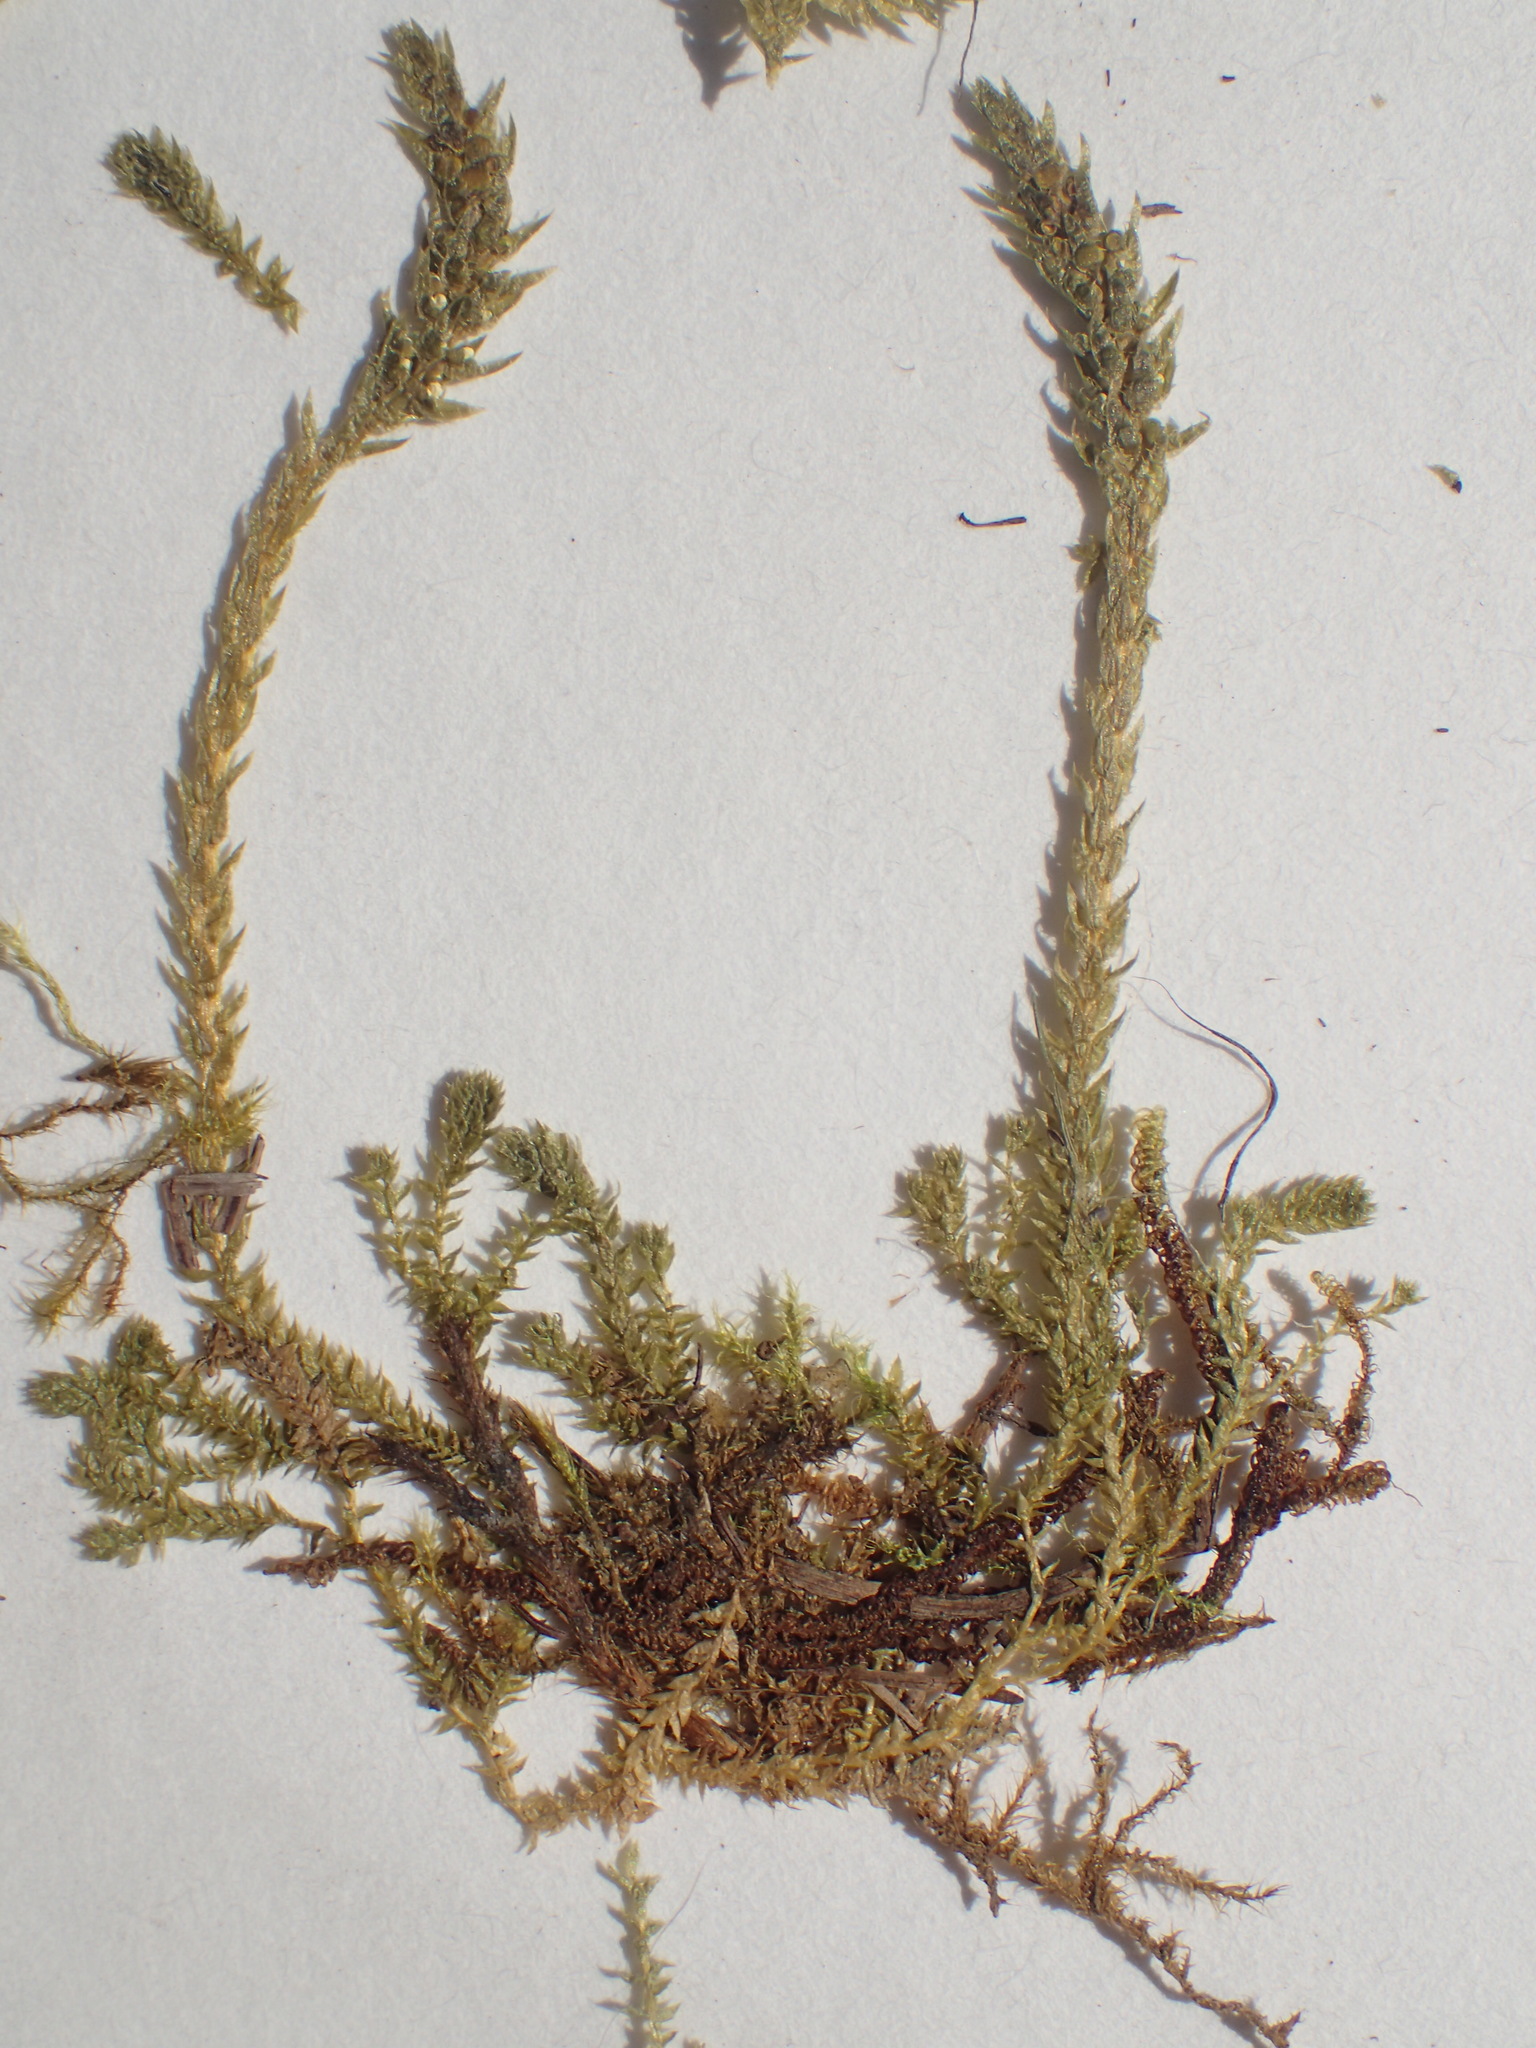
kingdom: Plantae
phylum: Tracheophyta
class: Lycopodiopsida
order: Selaginellales
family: Selaginellaceae
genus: Selaginella
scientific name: Selaginella selaginoides
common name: Prickly mountain-moss
